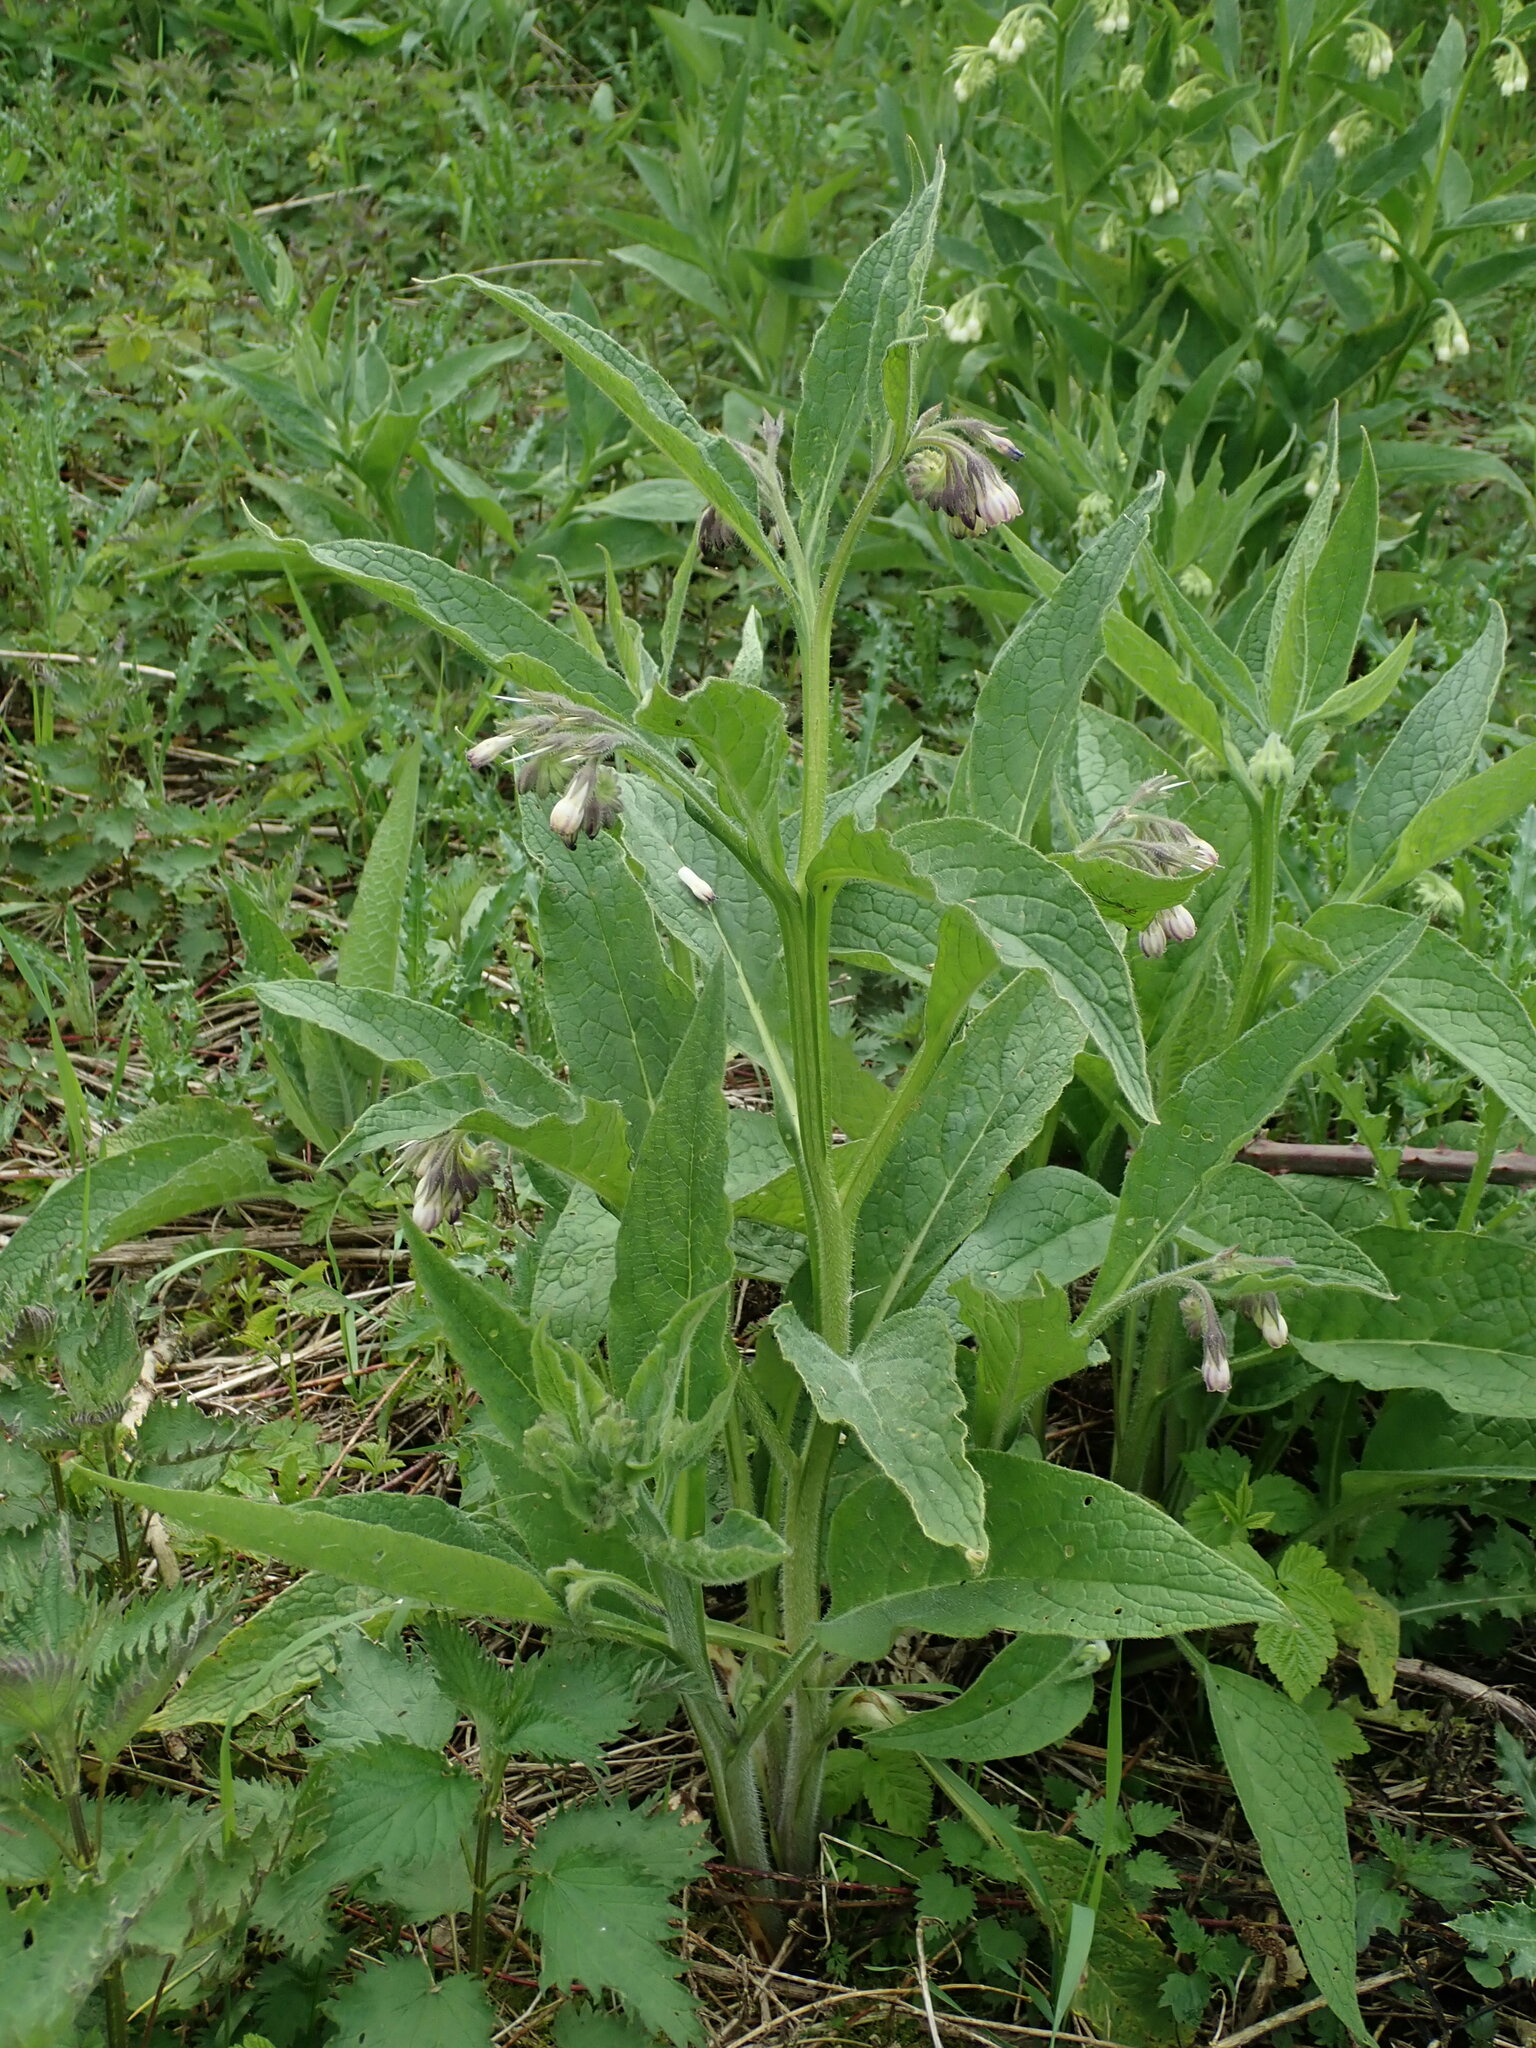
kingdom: Plantae
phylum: Tracheophyta
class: Magnoliopsida
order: Boraginales
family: Boraginaceae
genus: Symphytum
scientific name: Symphytum officinale
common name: Common comfrey
